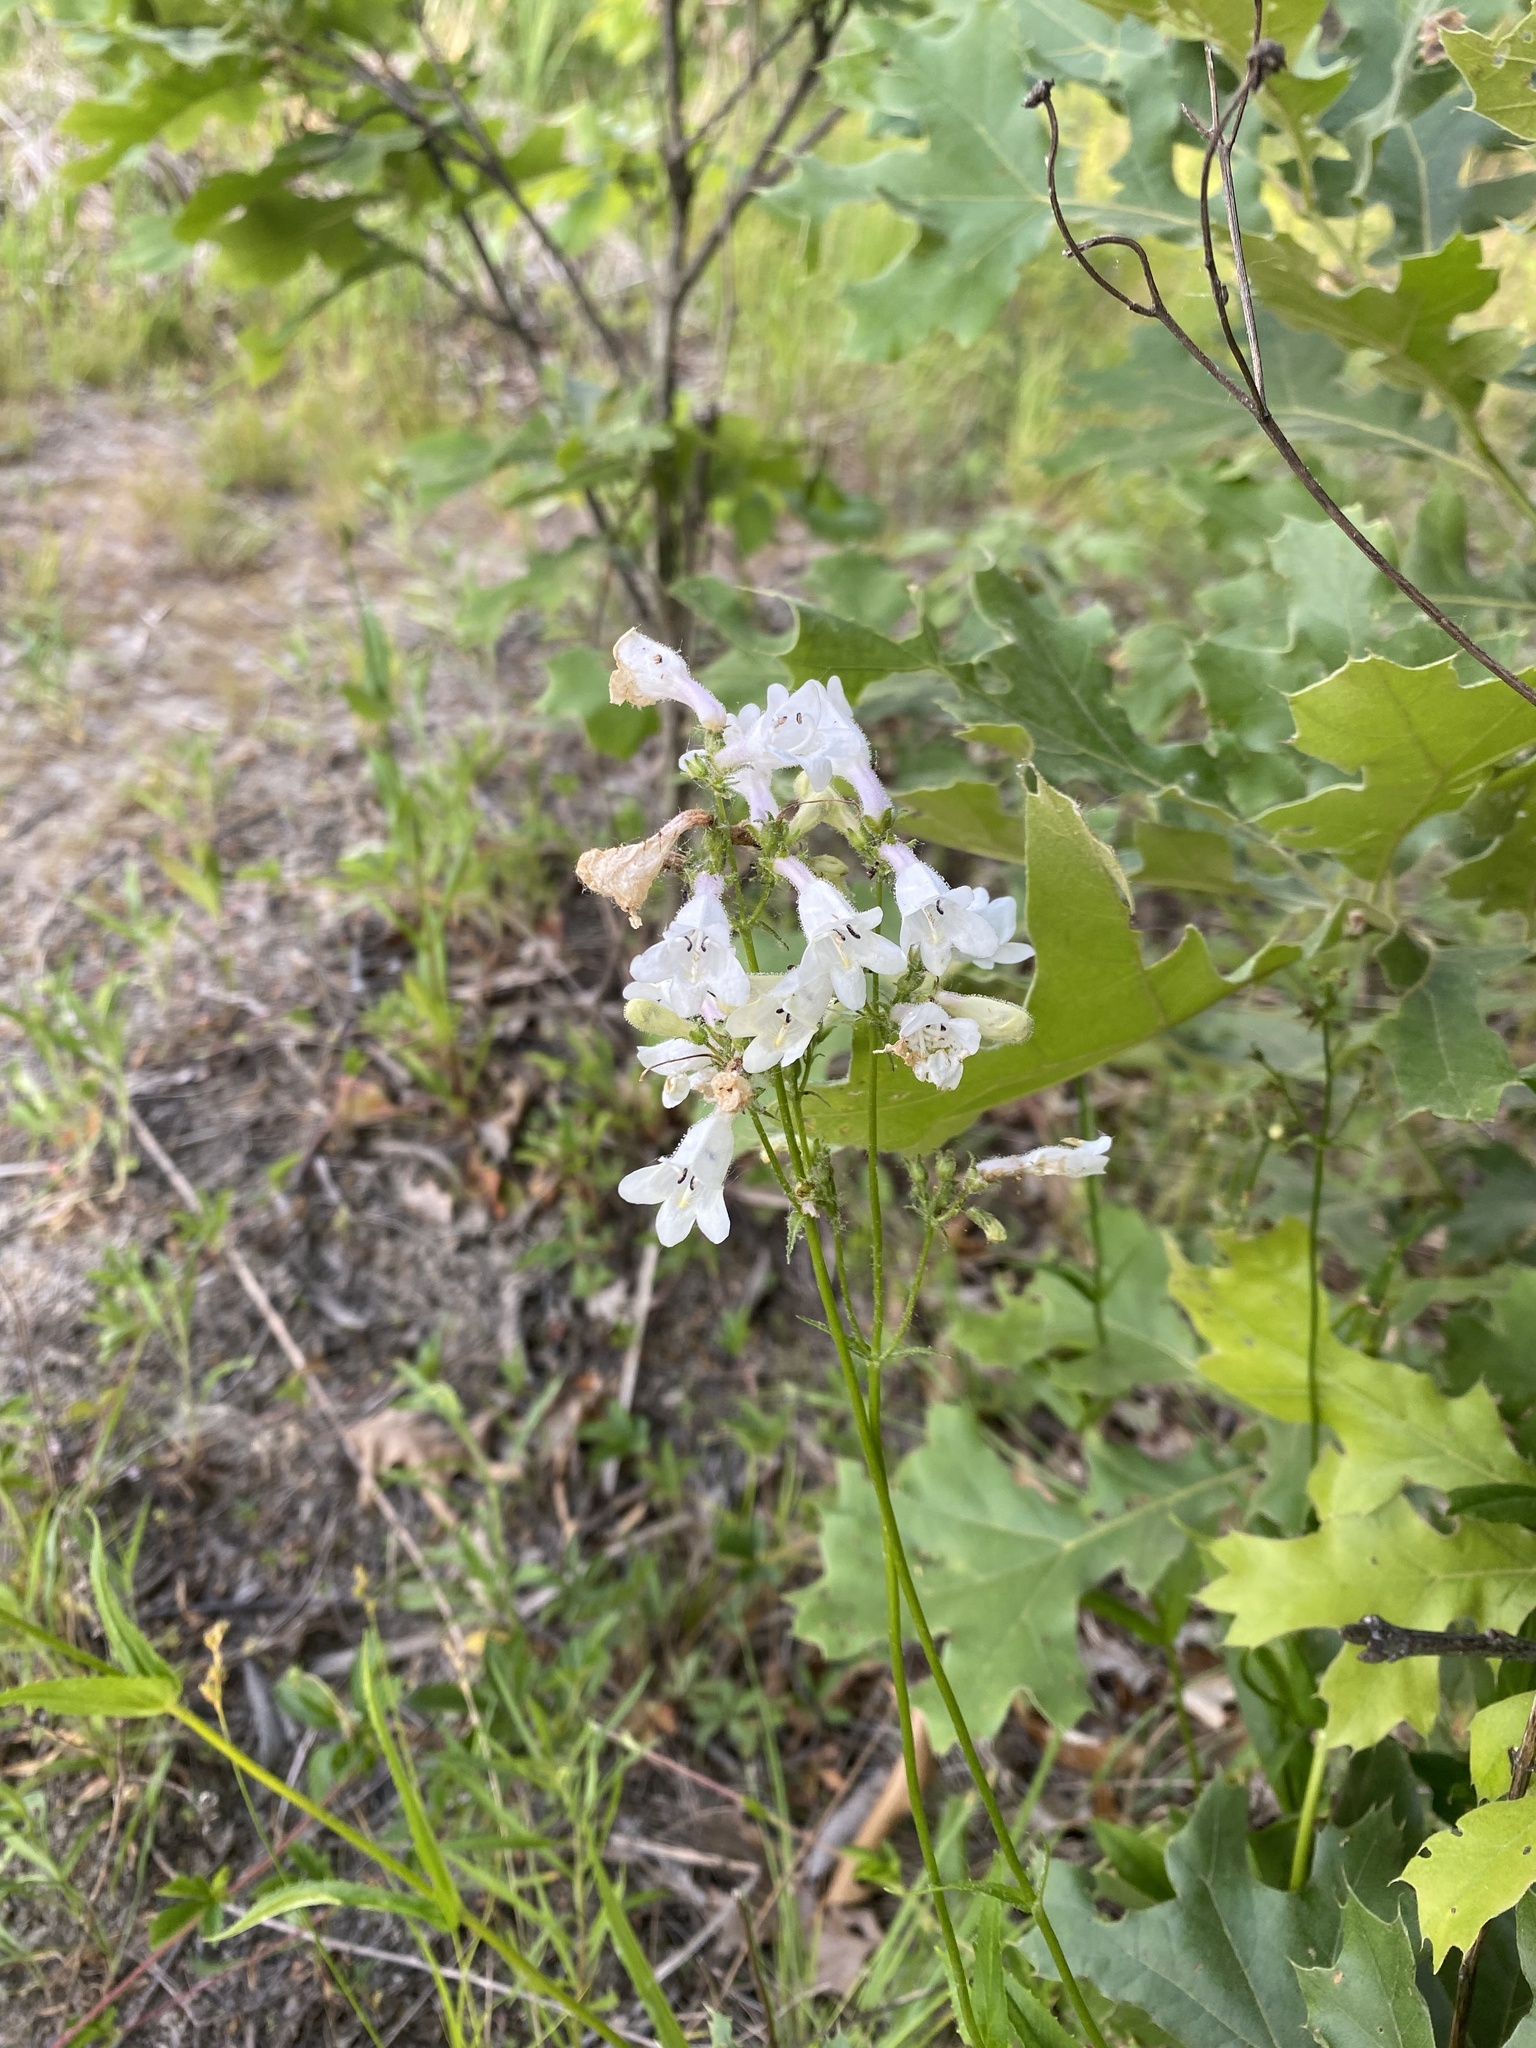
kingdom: Plantae
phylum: Tracheophyta
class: Magnoliopsida
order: Lamiales
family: Plantaginaceae
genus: Penstemon
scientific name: Penstemon digitalis
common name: Foxglove beardtongue
